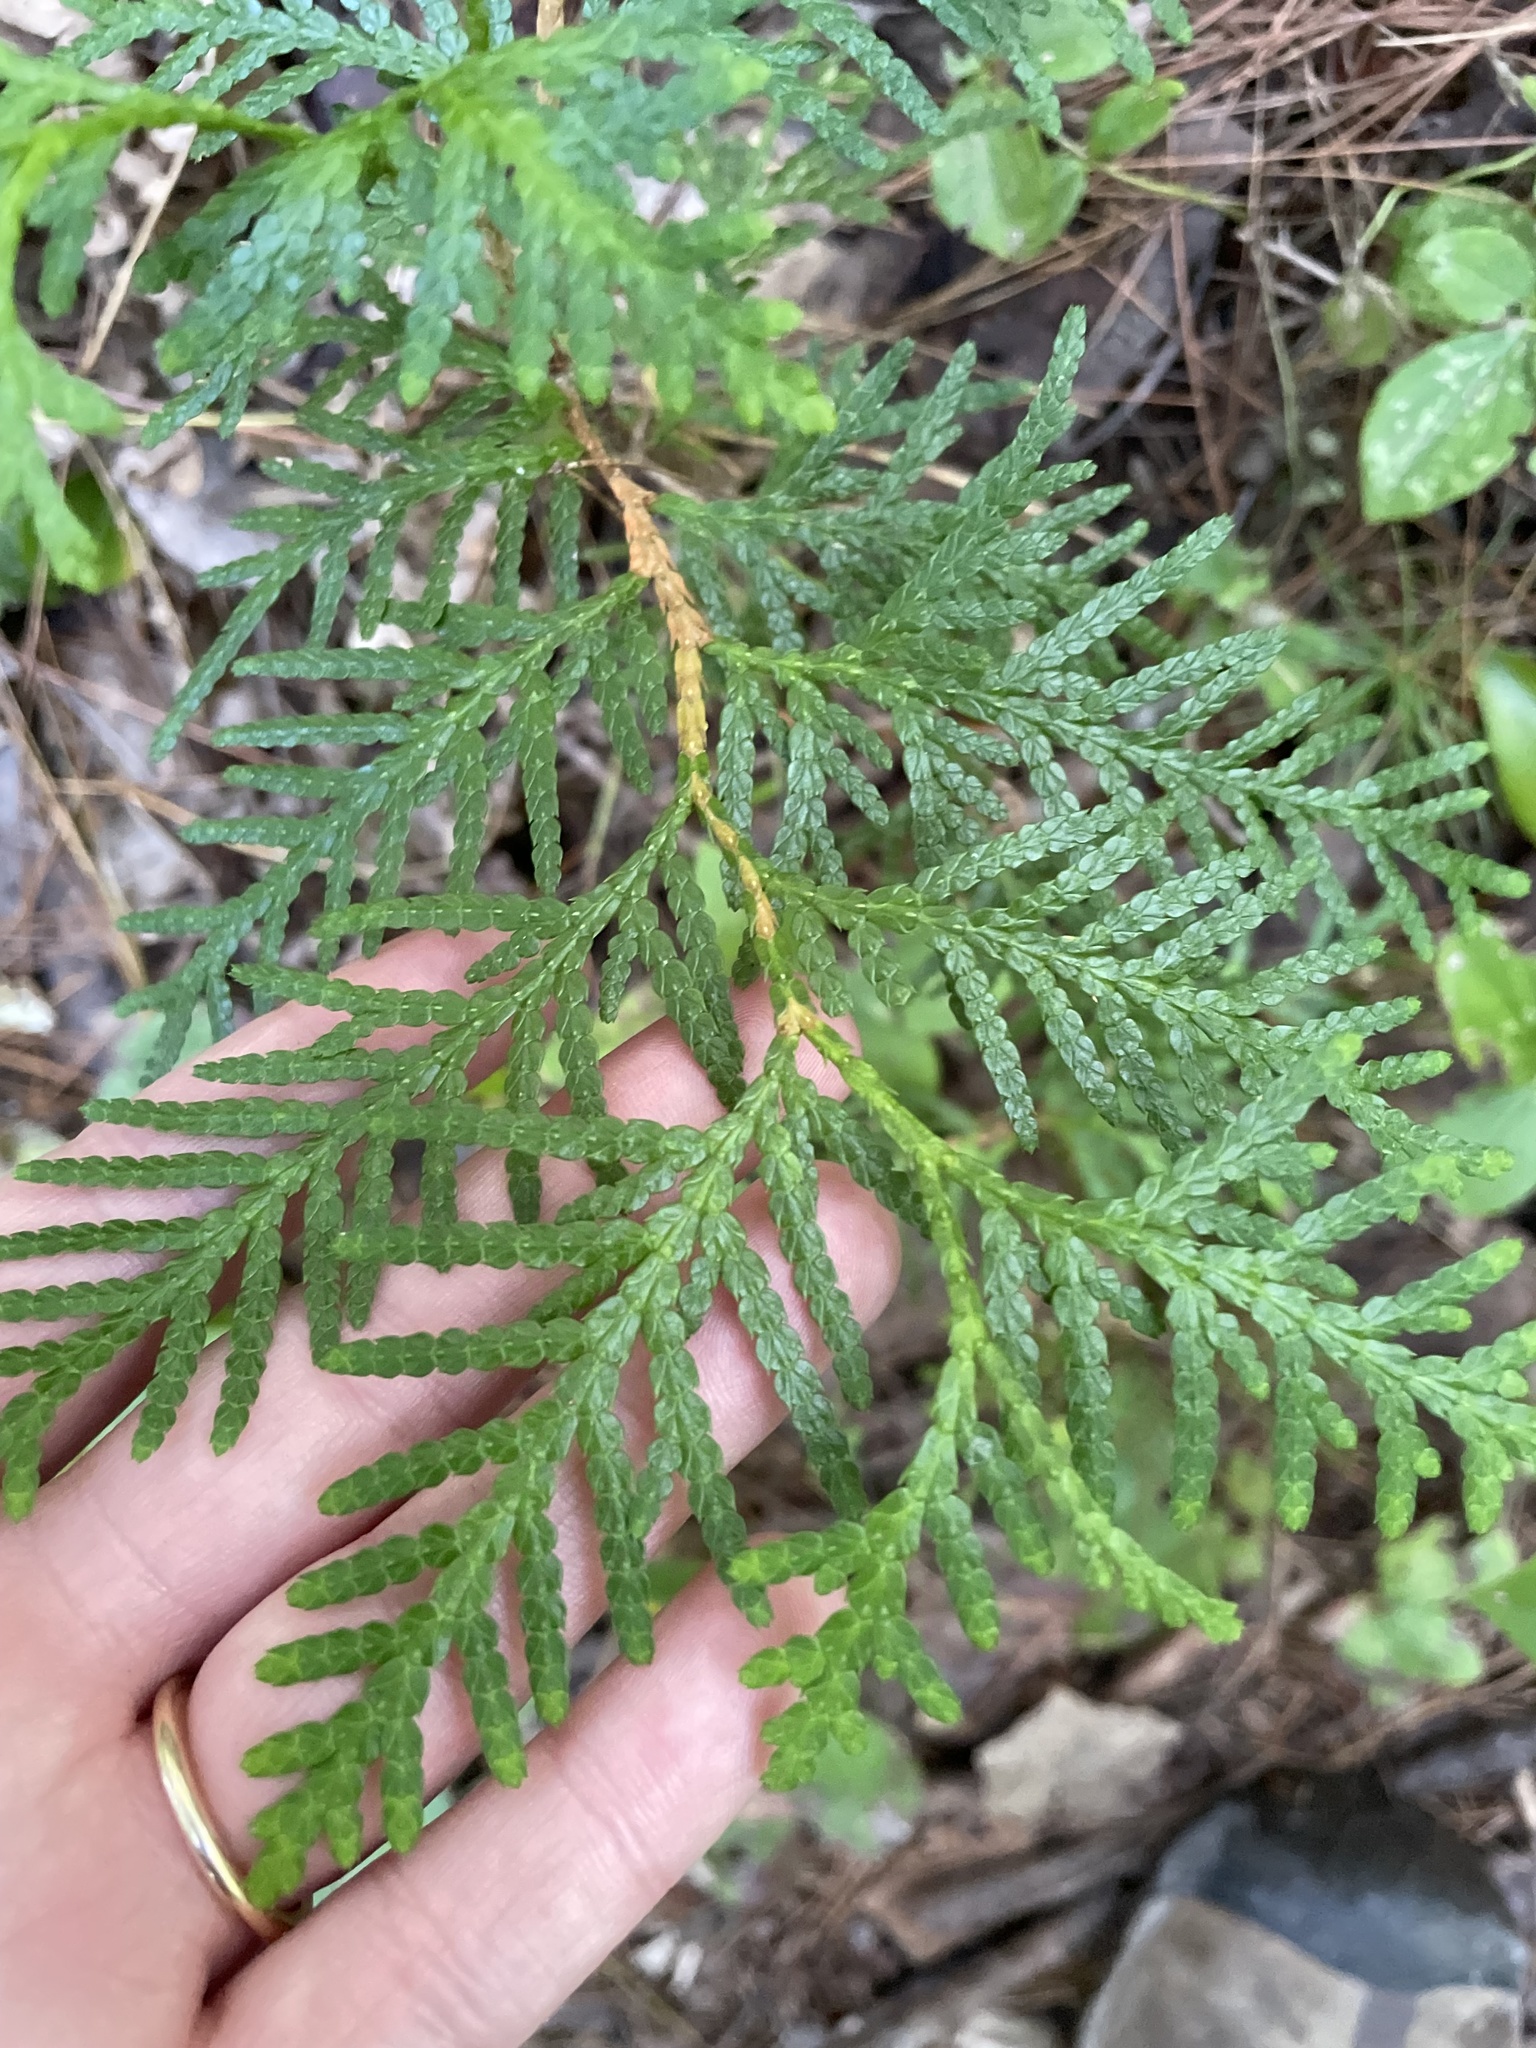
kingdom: Plantae
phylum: Tracheophyta
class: Pinopsida
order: Pinales
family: Cupressaceae
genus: Thuja
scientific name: Thuja occidentalis
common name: Northern white-cedar
